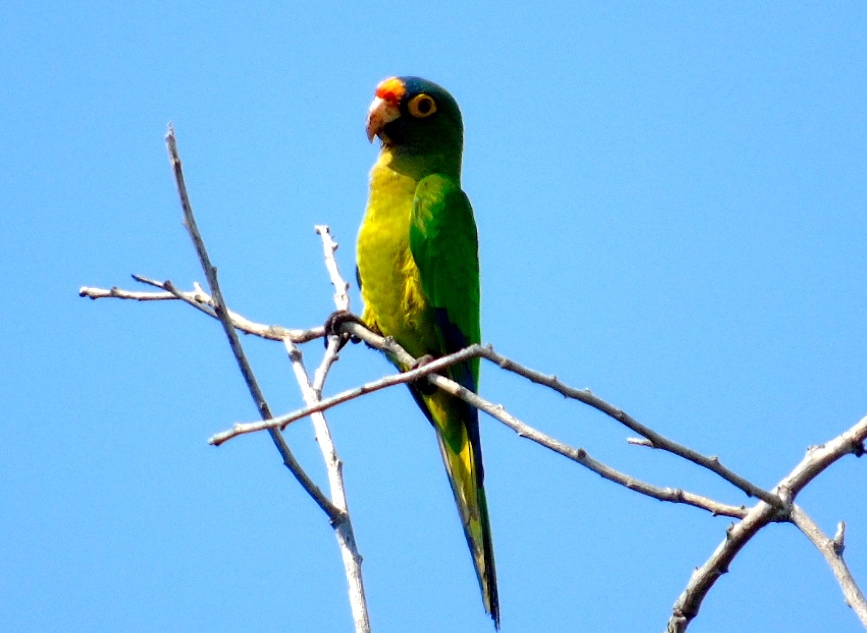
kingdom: Animalia
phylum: Chordata
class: Aves
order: Psittaciformes
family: Psittacidae
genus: Aratinga
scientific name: Aratinga canicularis
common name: Orange-fronted parakeet
